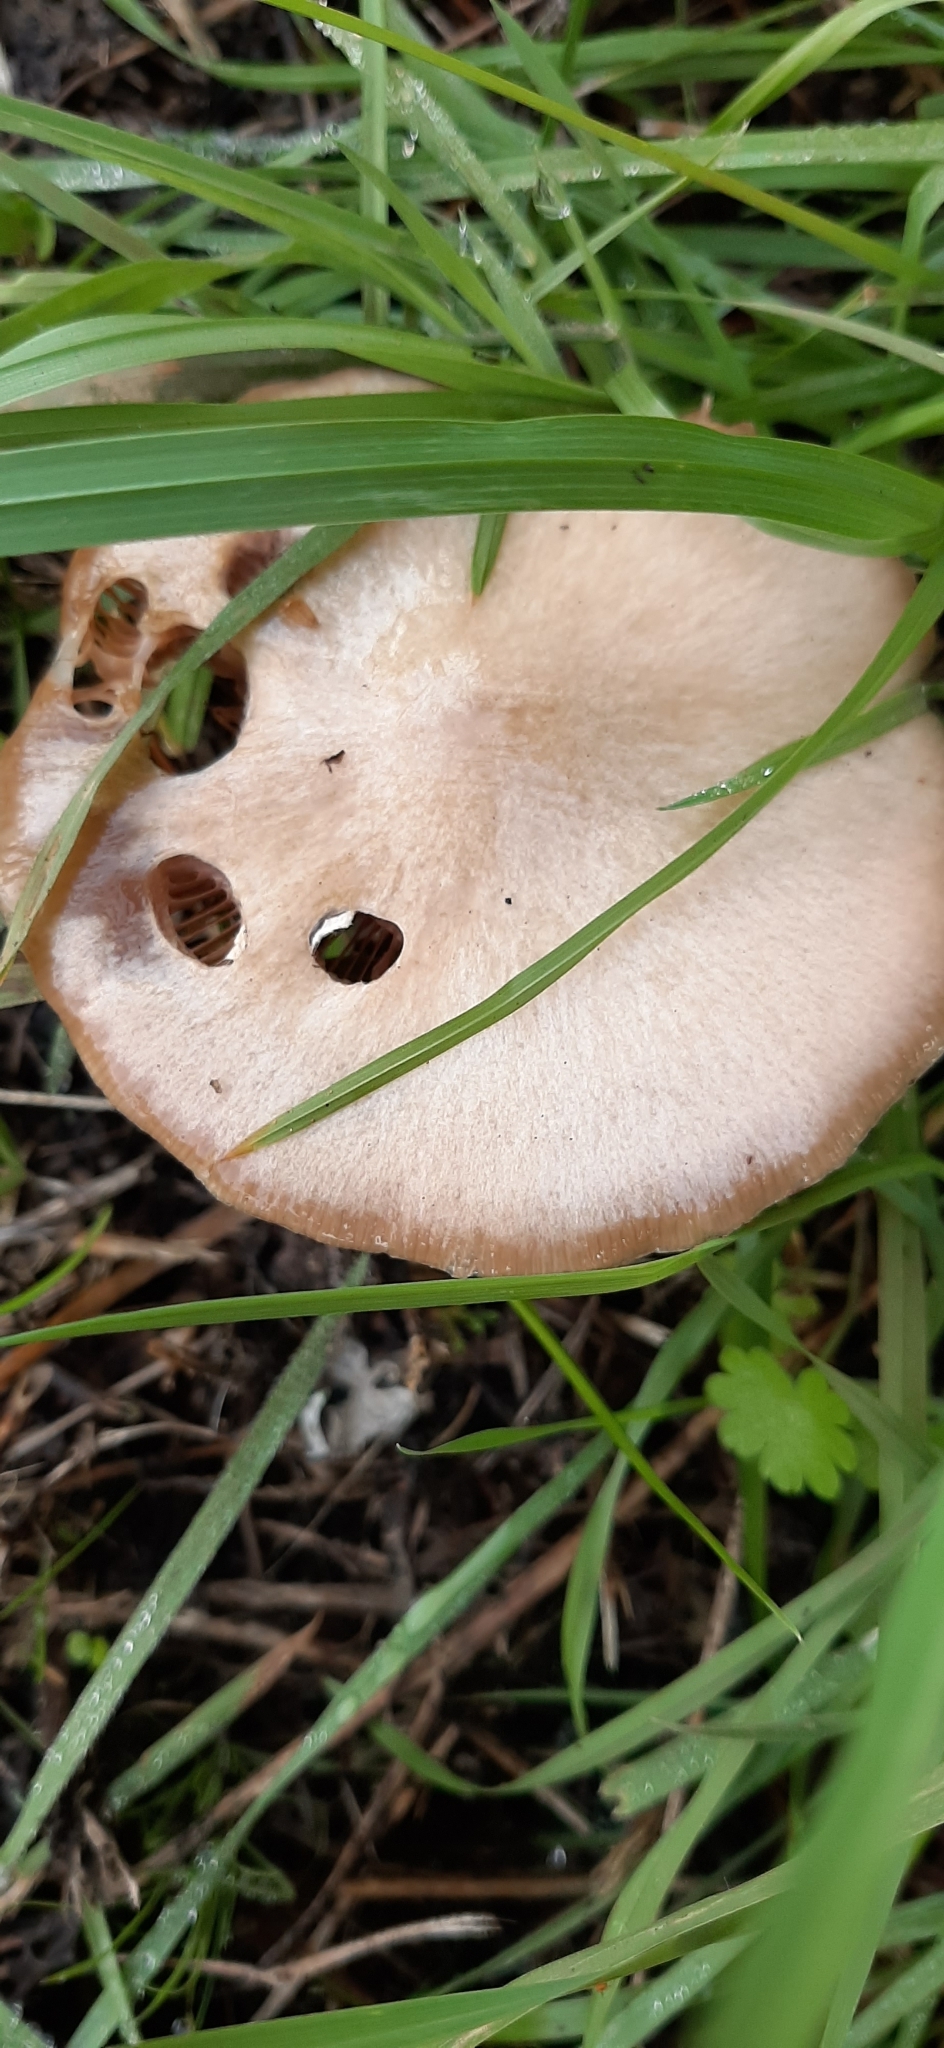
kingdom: Fungi
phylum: Basidiomycota
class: Agaricomycetes
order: Agaricales
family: Pluteaceae
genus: Volvopluteus
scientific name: Volvopluteus gloiocephalus
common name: Stubble rosegill
